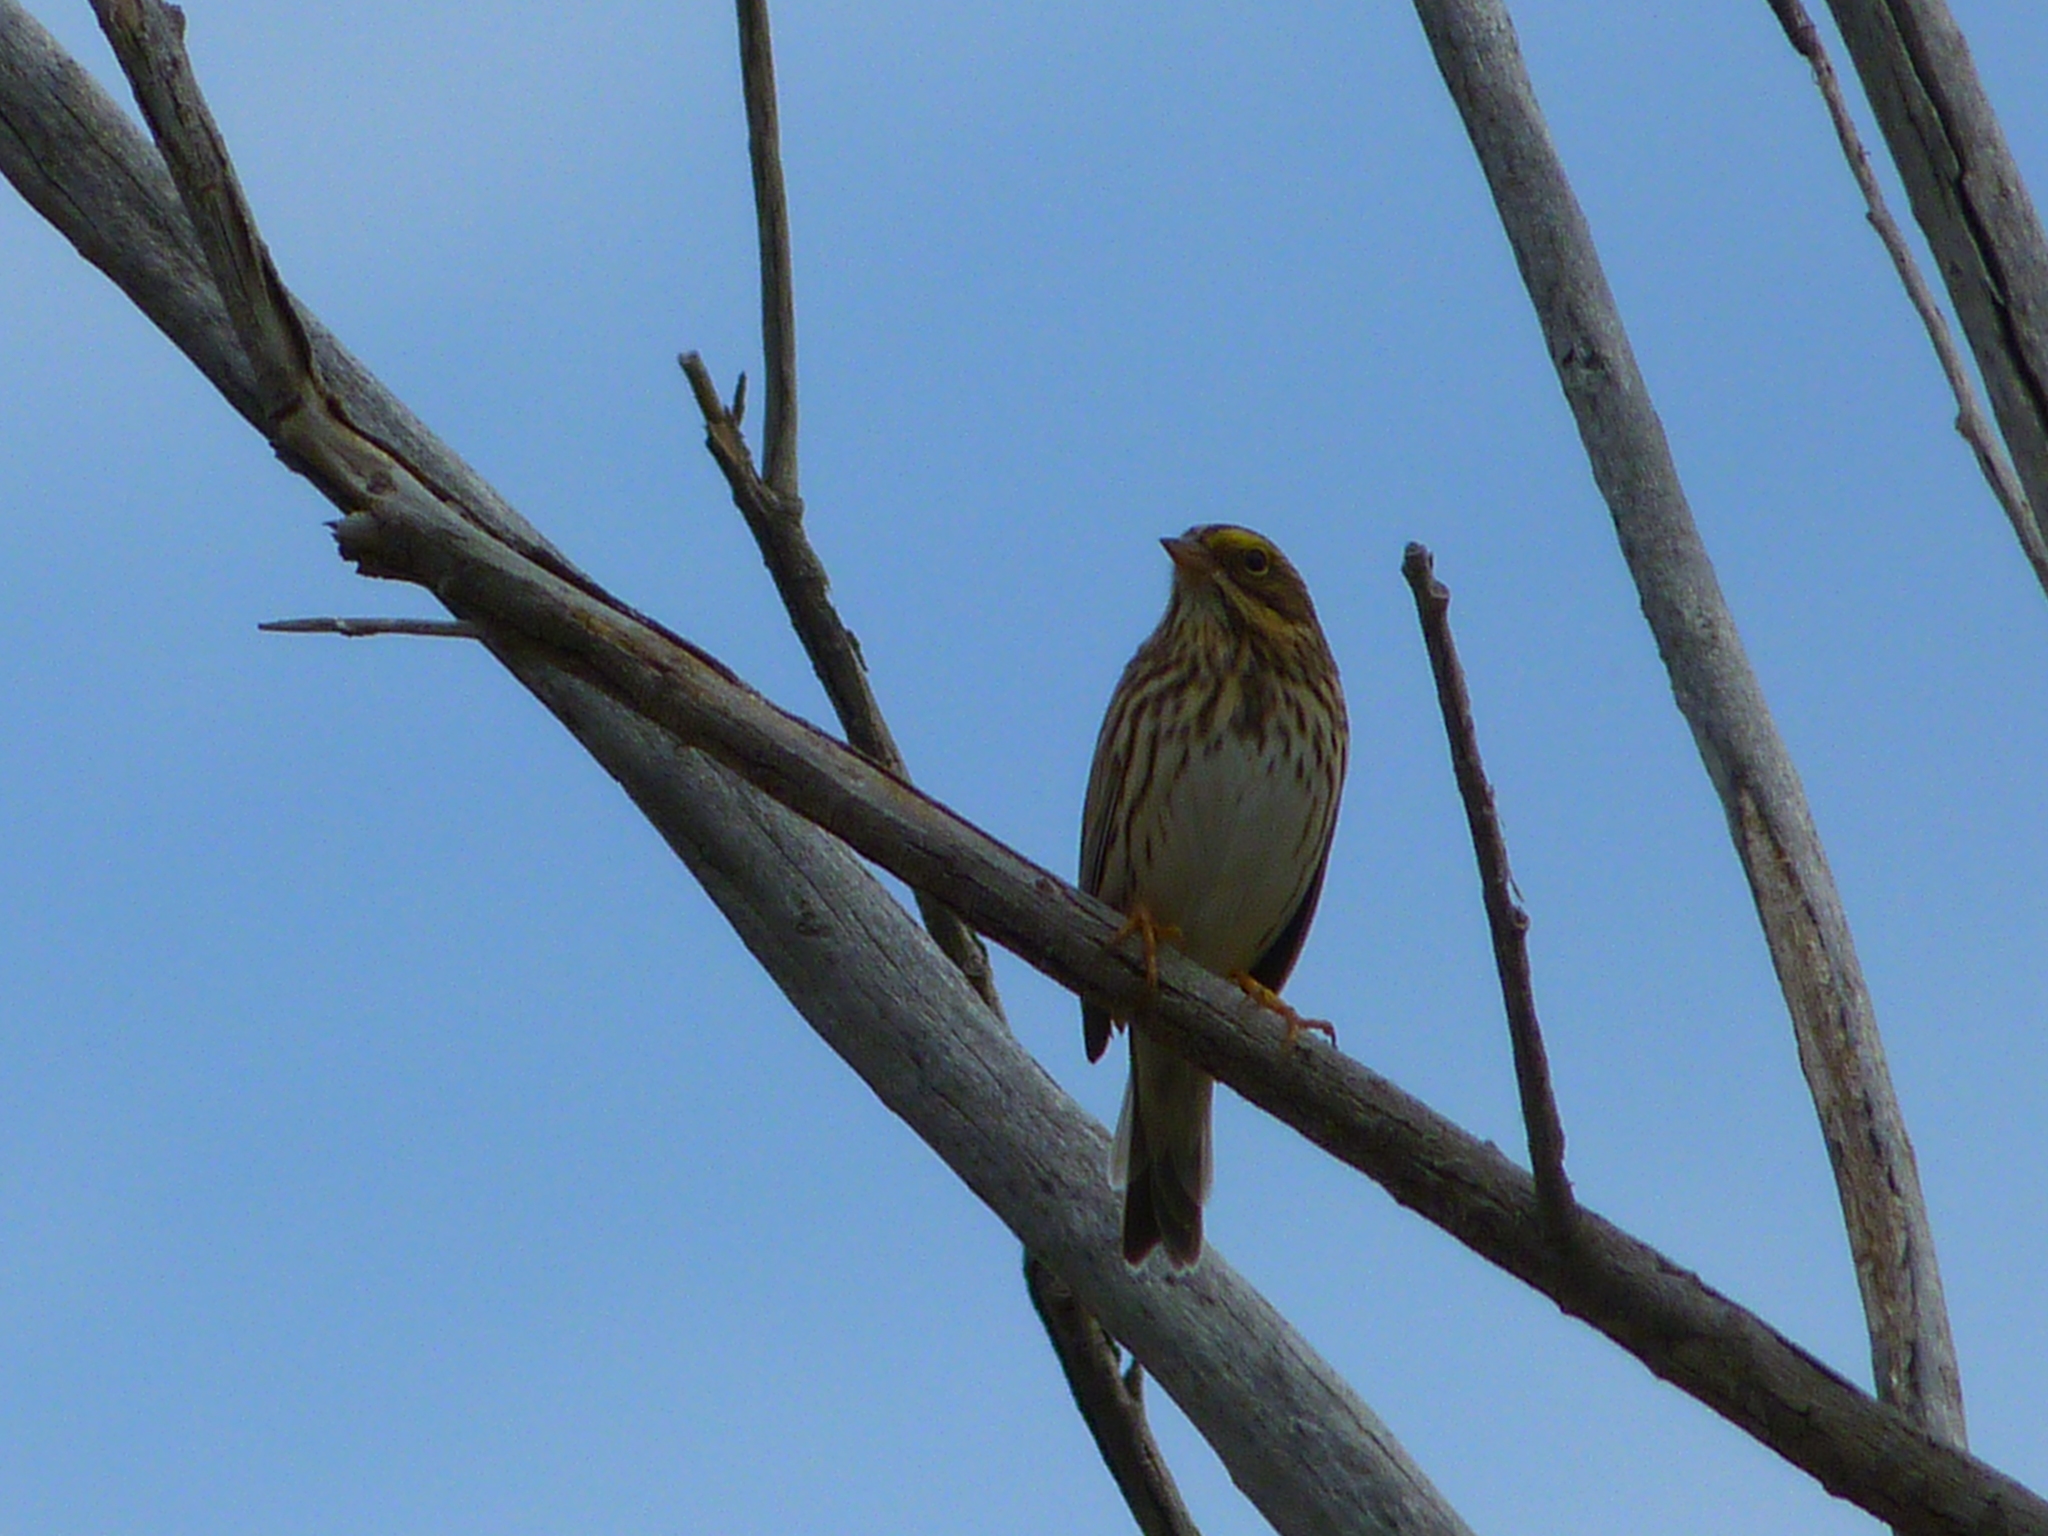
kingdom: Animalia
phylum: Chordata
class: Aves
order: Passeriformes
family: Passerellidae
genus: Passerculus
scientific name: Passerculus sandwichensis
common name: Savannah sparrow
